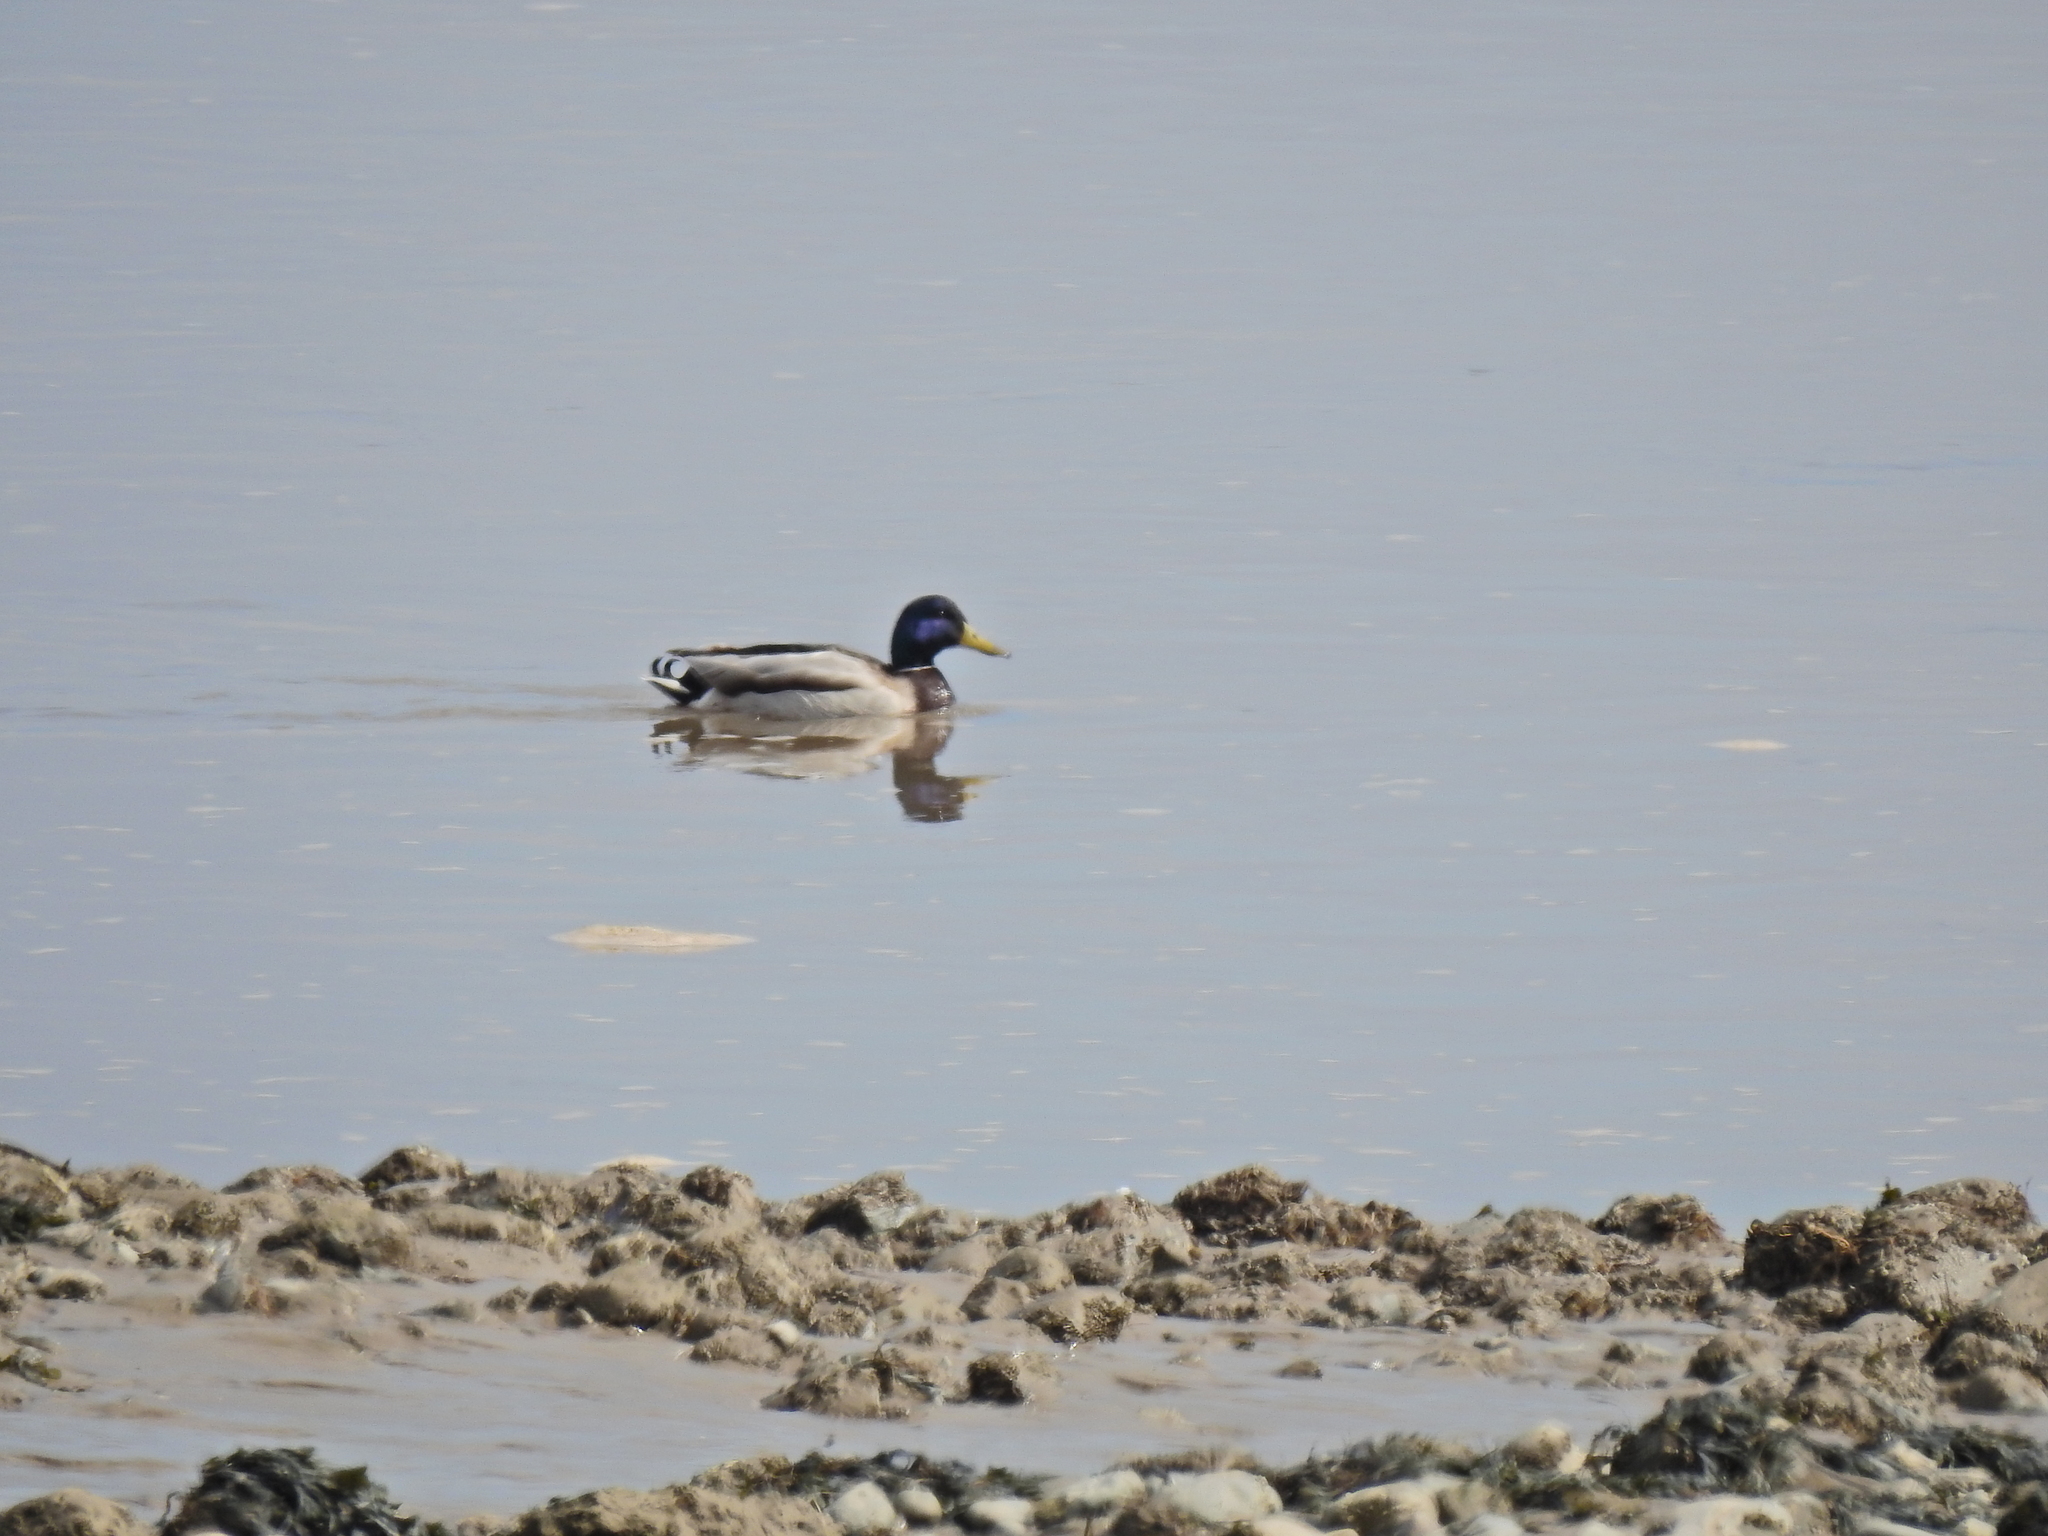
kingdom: Animalia
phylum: Chordata
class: Aves
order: Anseriformes
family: Anatidae
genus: Anas
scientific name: Anas platyrhynchos
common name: Mallard
